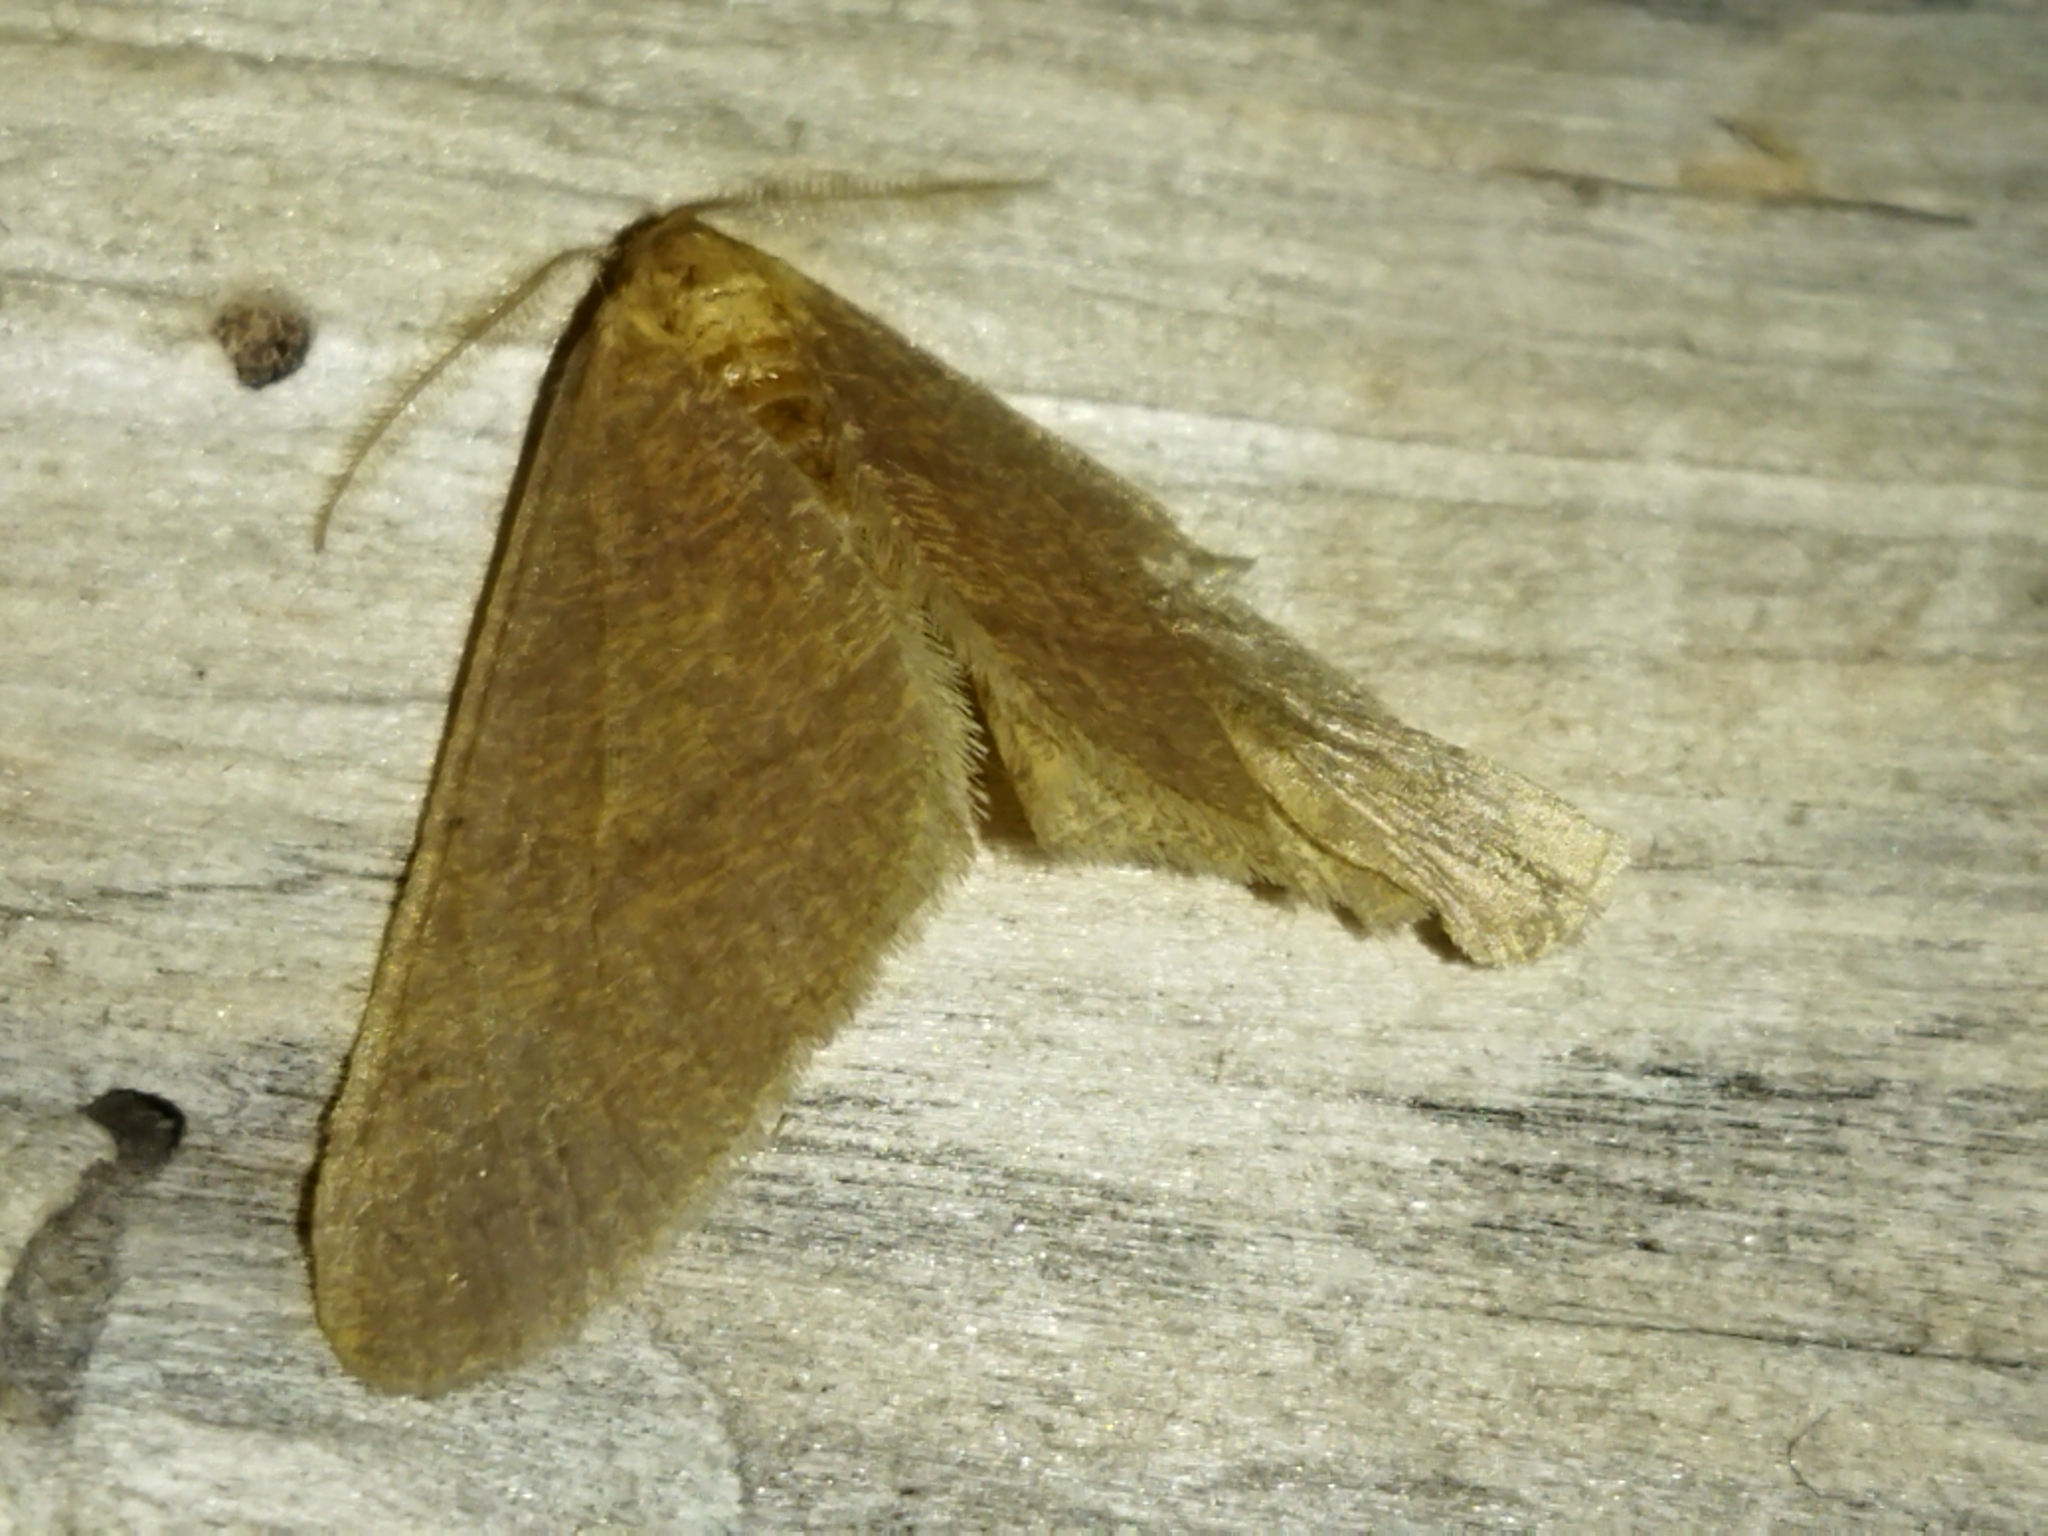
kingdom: Animalia
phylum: Arthropoda
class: Insecta
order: Lepidoptera
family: Geometridae
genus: Agriopis
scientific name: Agriopis budashkini
